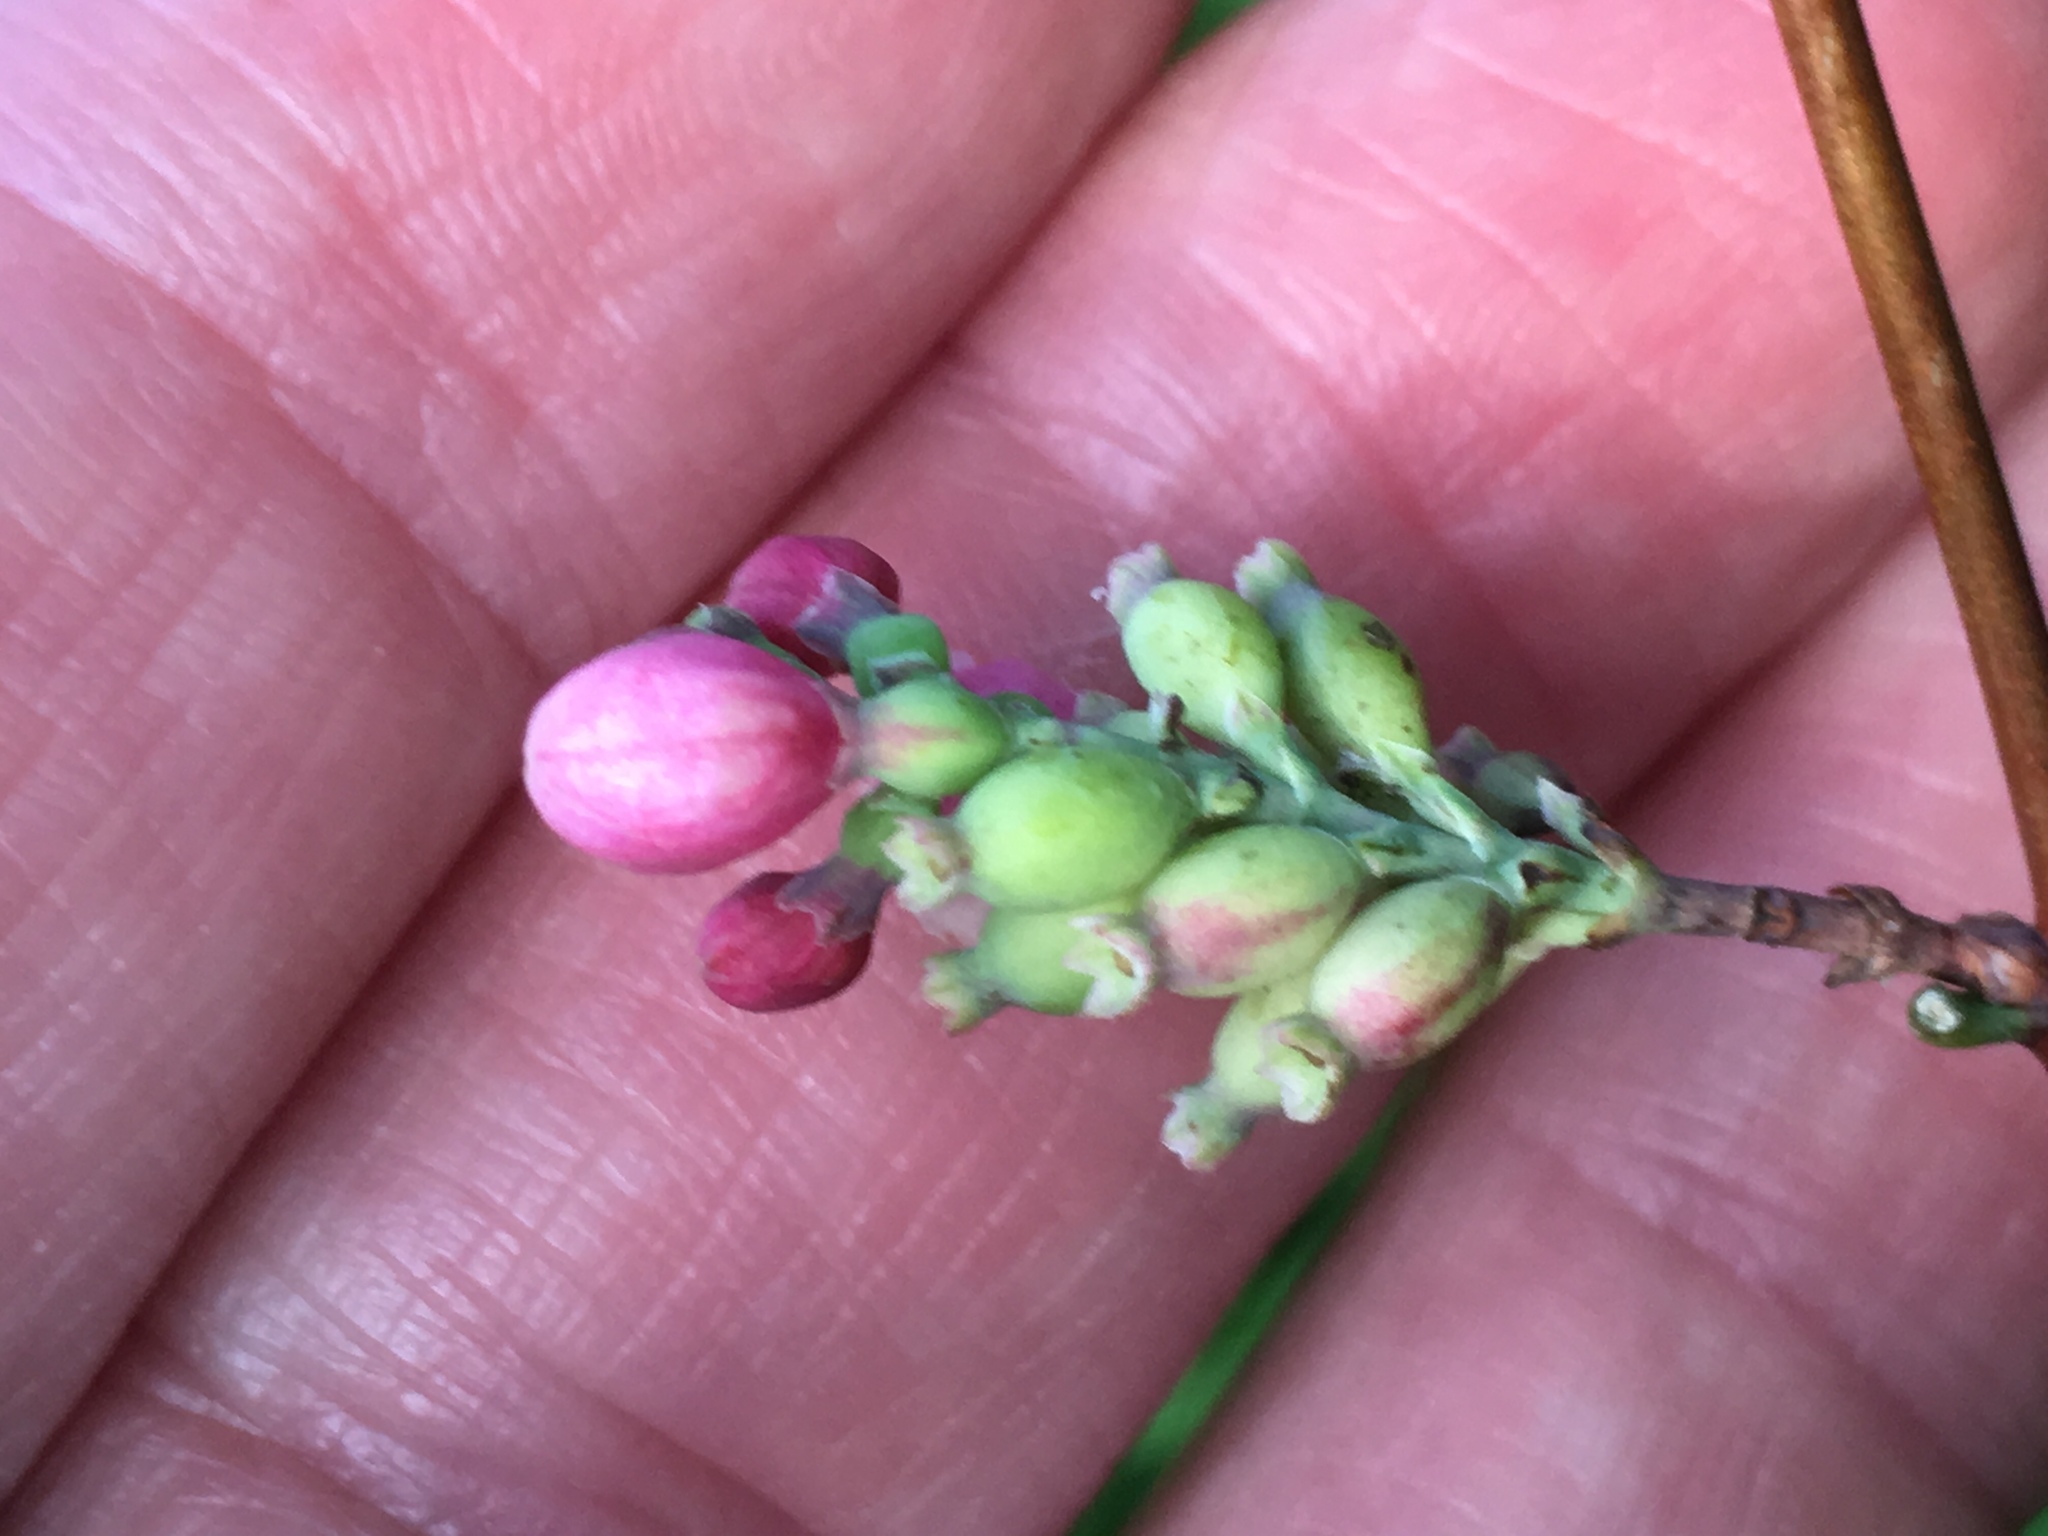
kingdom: Plantae
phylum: Tracheophyta
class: Magnoliopsida
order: Dipsacales
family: Caprifoliaceae
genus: Symphoricarpos
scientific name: Symphoricarpos albus
